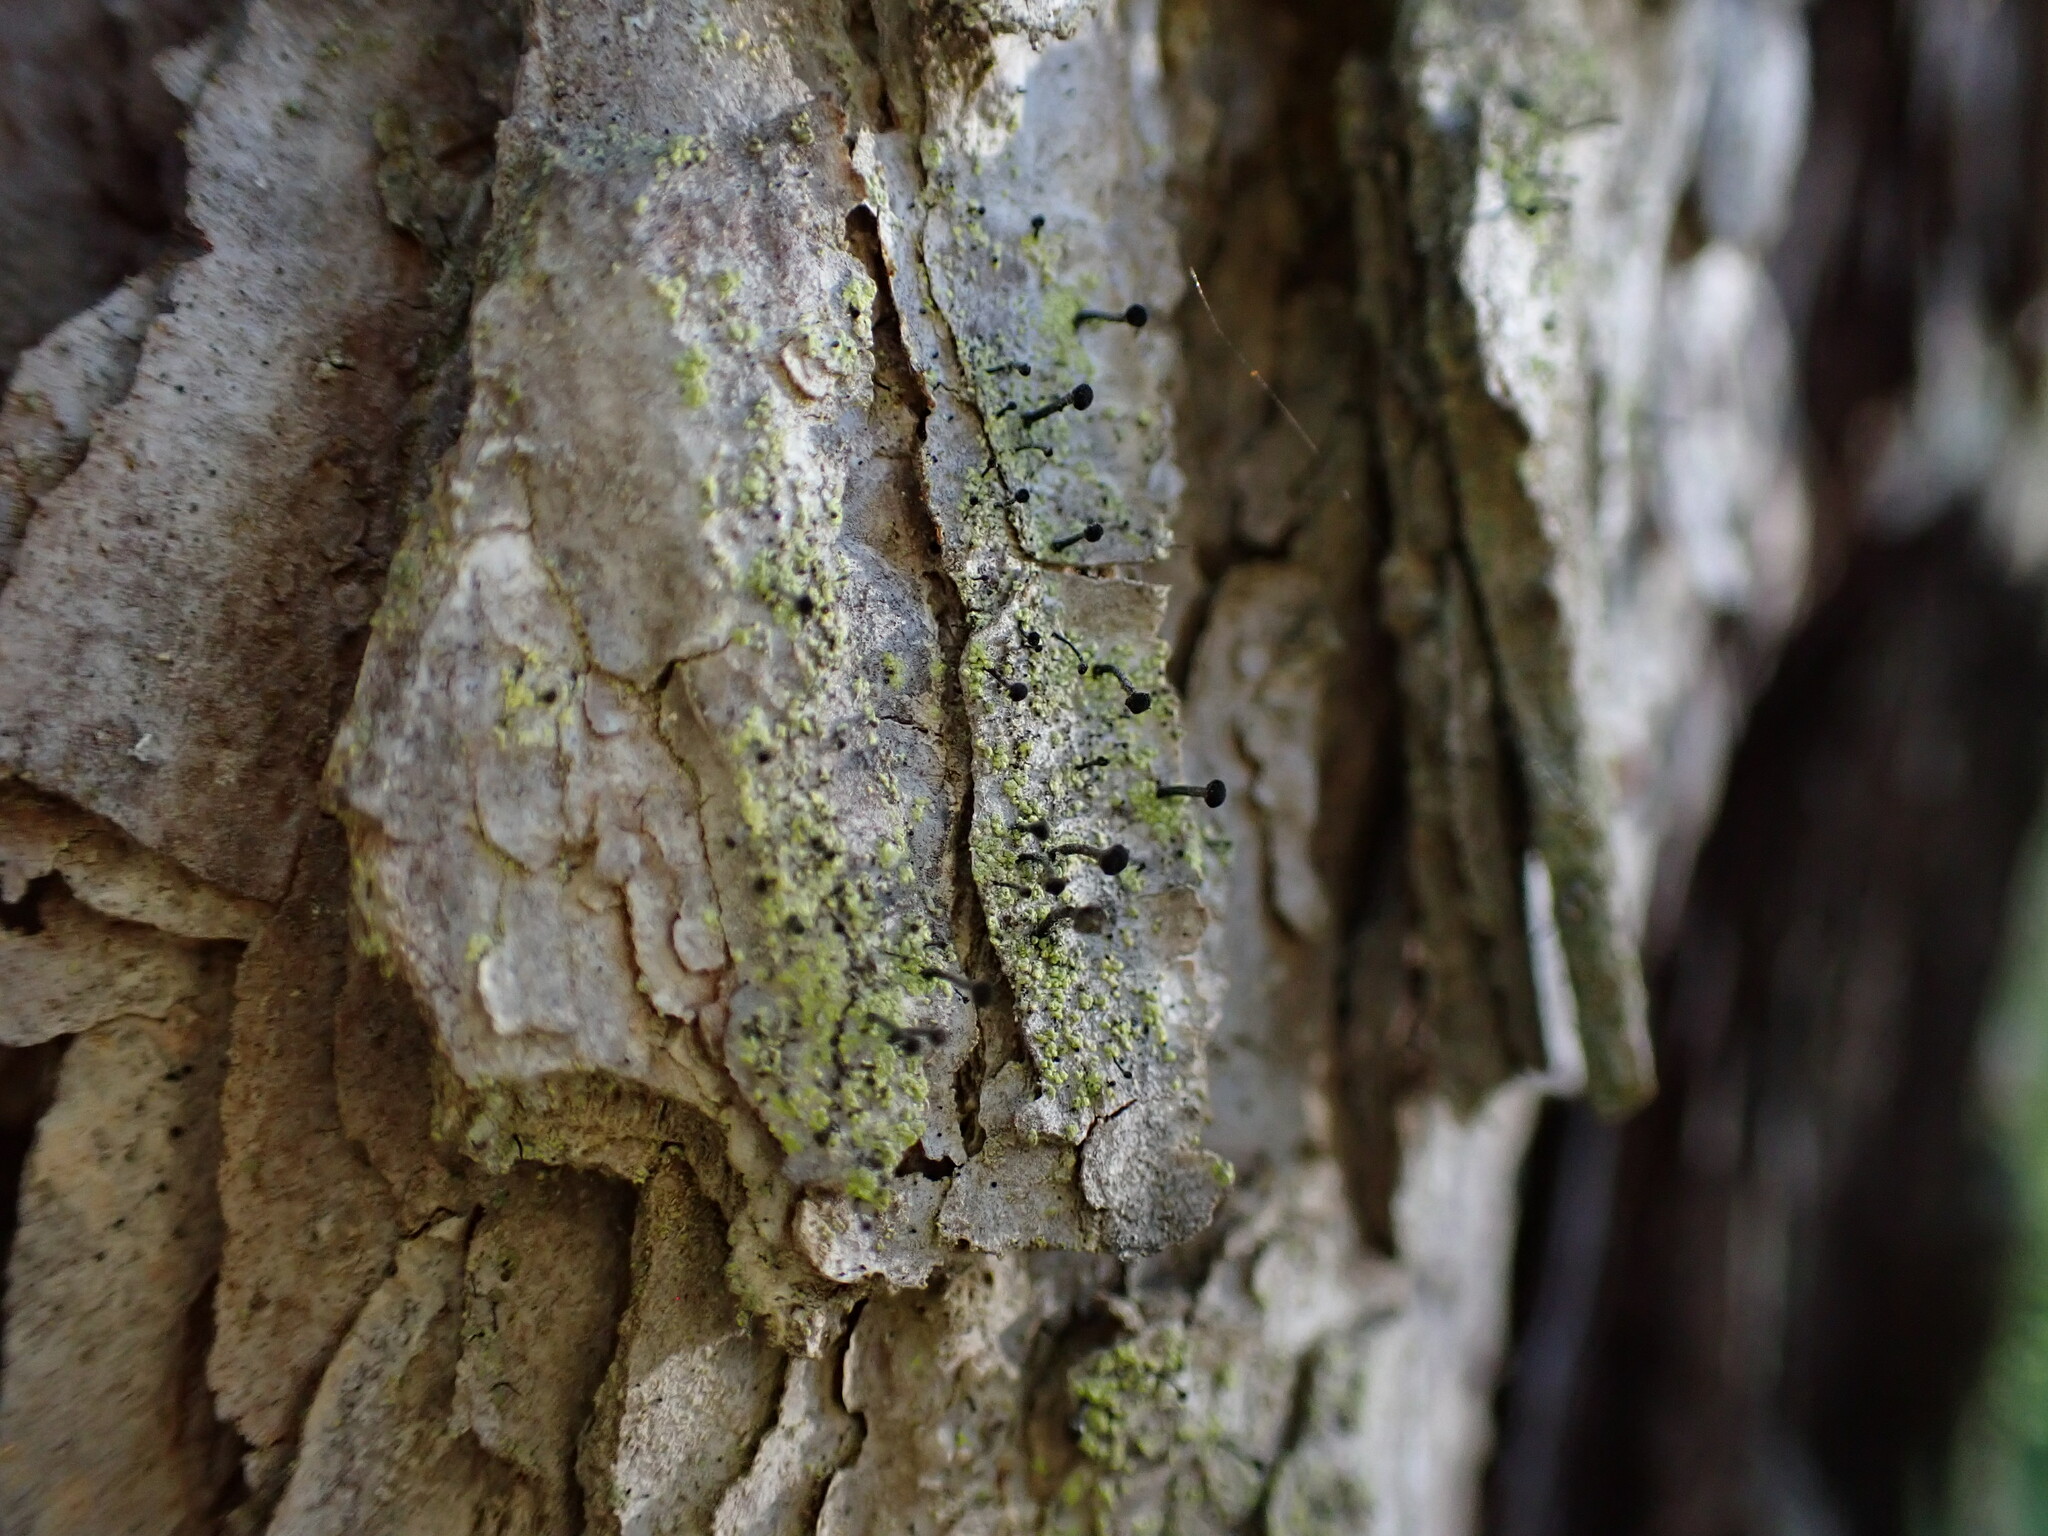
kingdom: Fungi
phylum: Ascomycota
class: Lecanoromycetes
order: Caliciales
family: Caliciaceae
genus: Calicium
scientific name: Calicium viride
